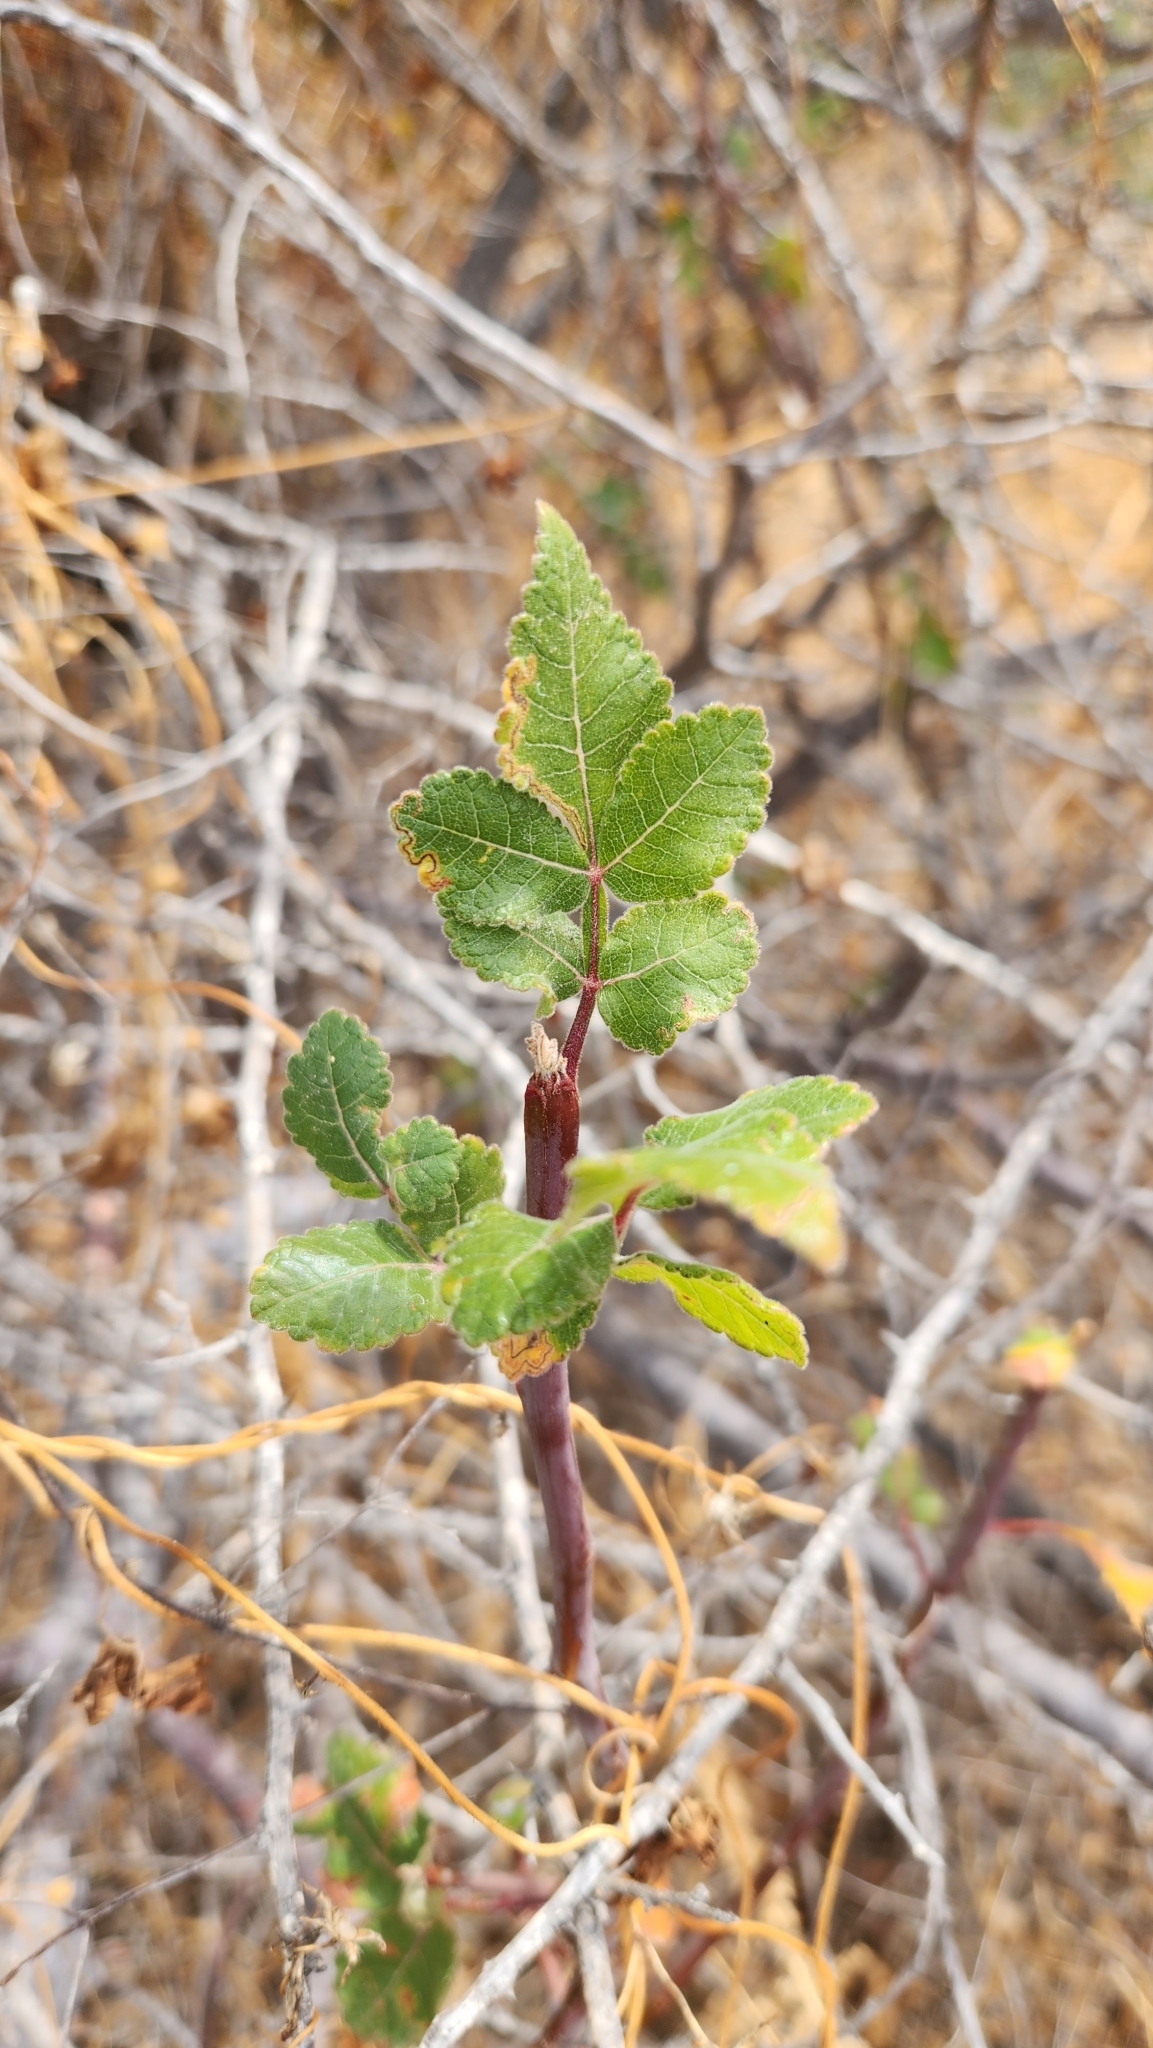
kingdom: Plantae
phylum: Tracheophyta
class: Magnoliopsida
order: Sapindales
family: Burseraceae
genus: Bursera
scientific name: Bursera hindsiana
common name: Red elephant tree
